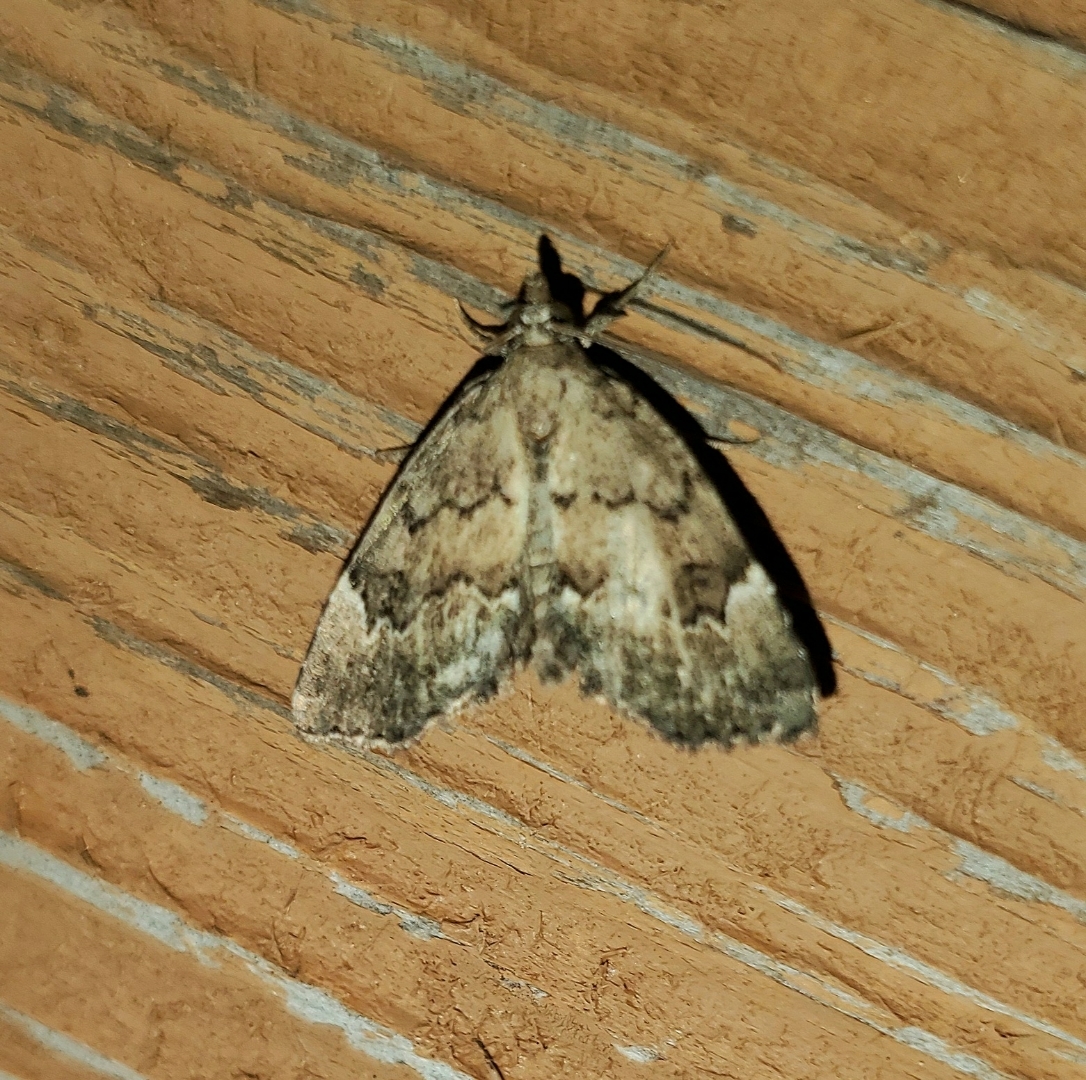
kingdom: Animalia
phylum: Arthropoda
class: Insecta
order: Lepidoptera
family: Erebidae
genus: Cutina
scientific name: Cutina aluticolor
